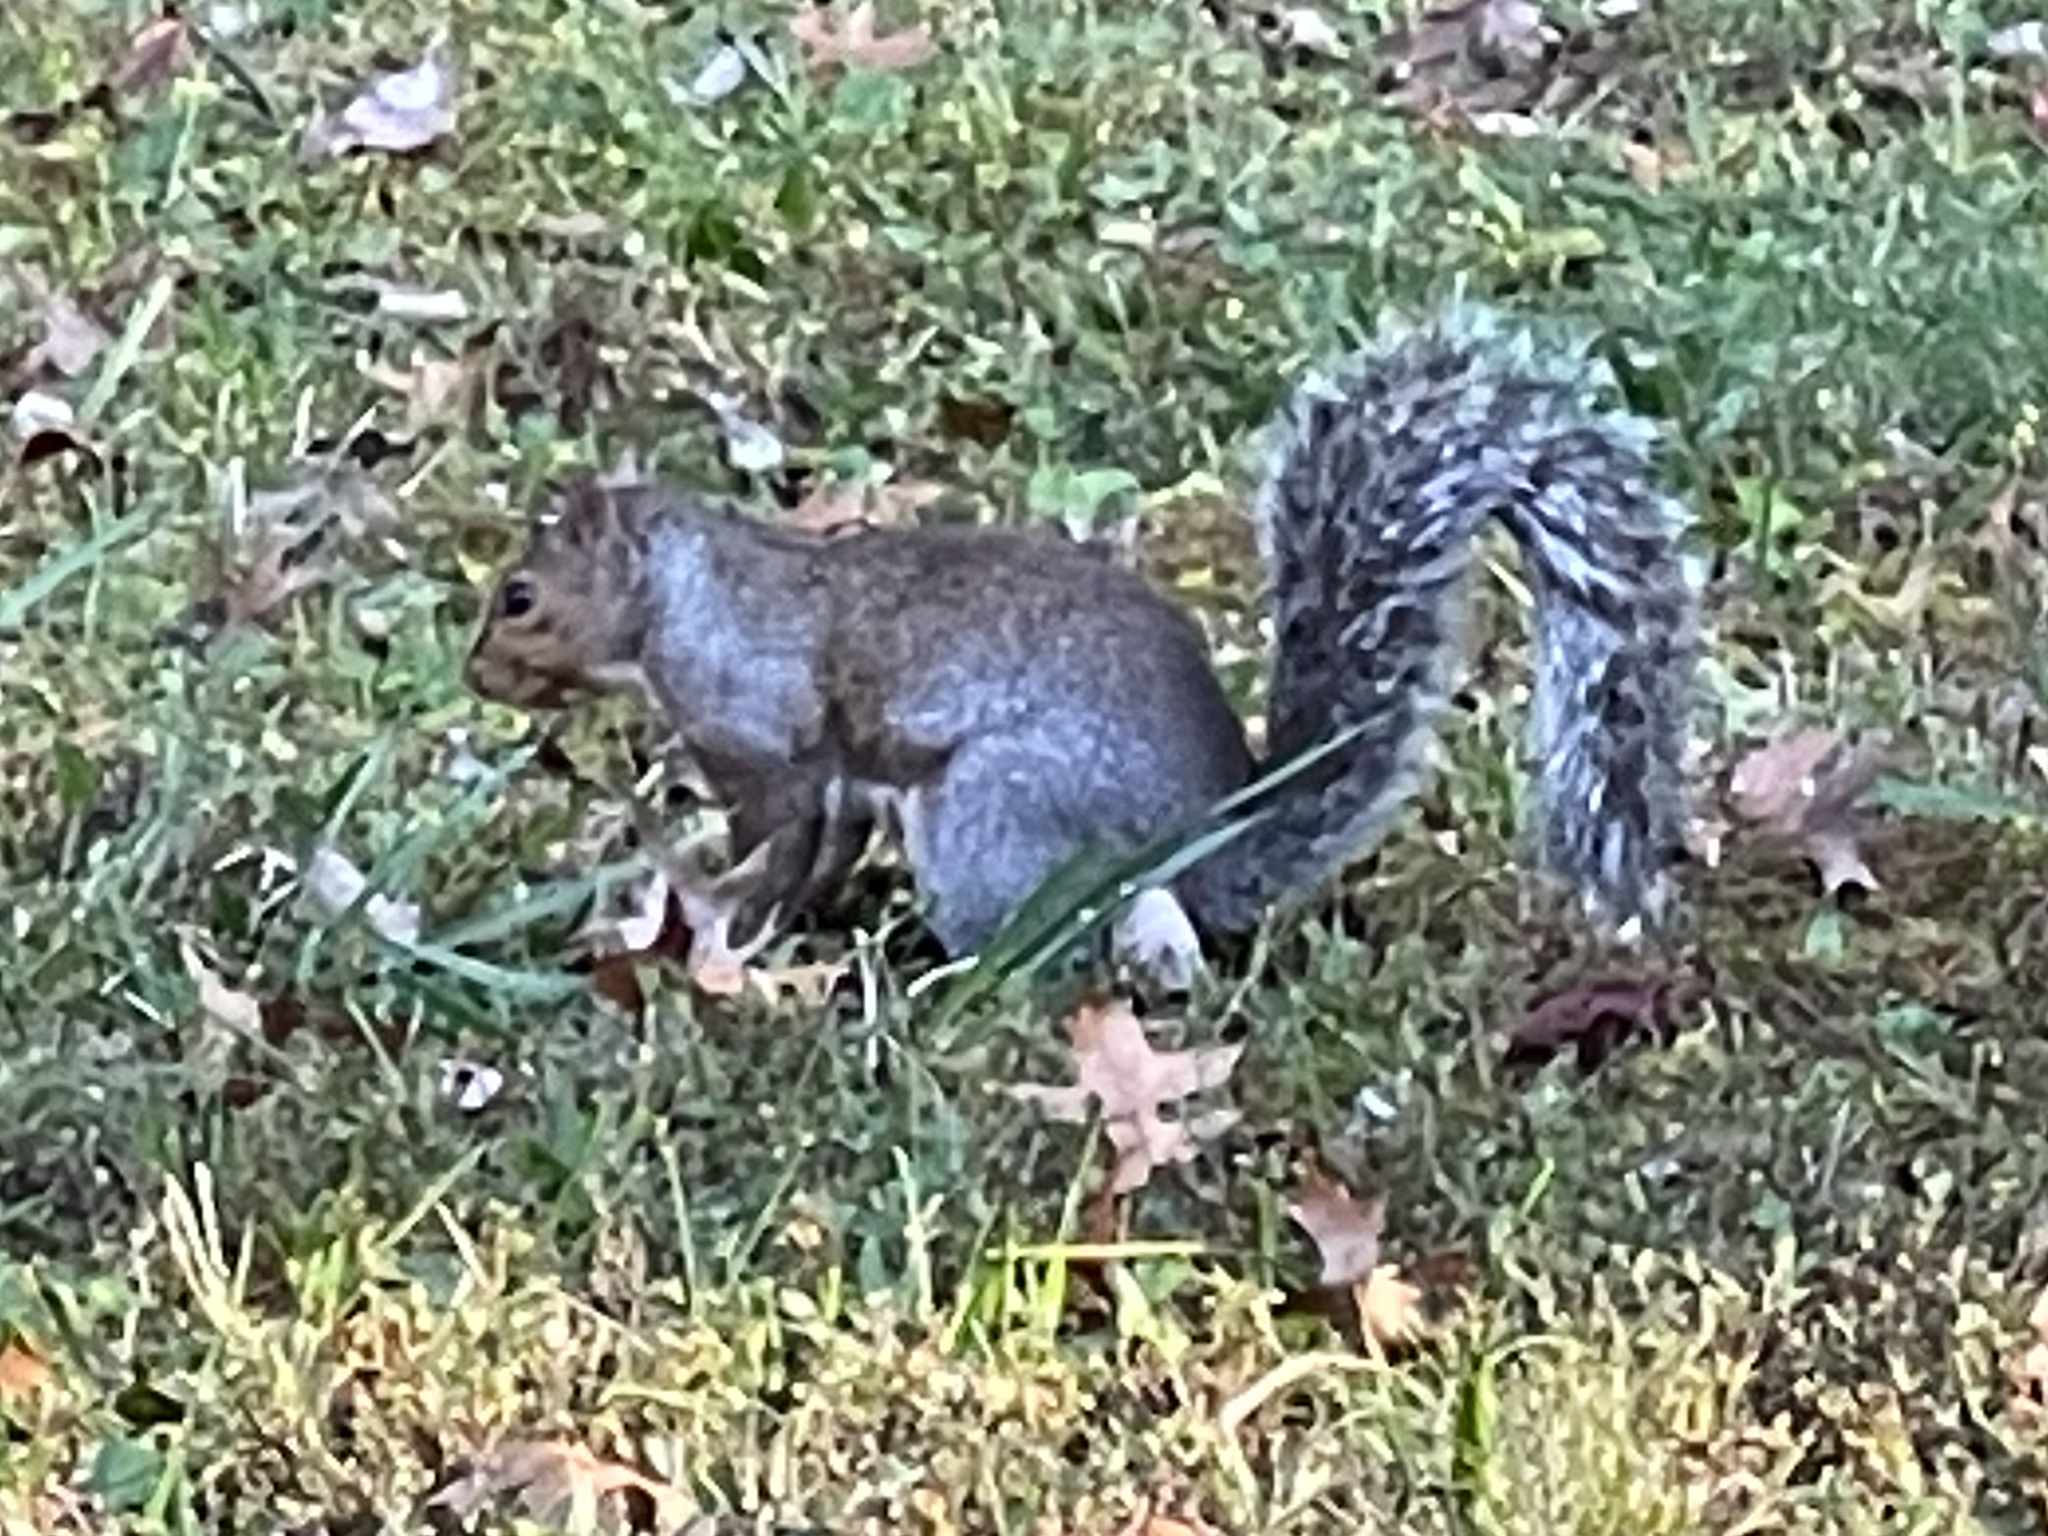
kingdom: Animalia
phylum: Chordata
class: Mammalia
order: Rodentia
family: Sciuridae
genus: Sciurus
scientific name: Sciurus carolinensis
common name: Eastern gray squirrel
